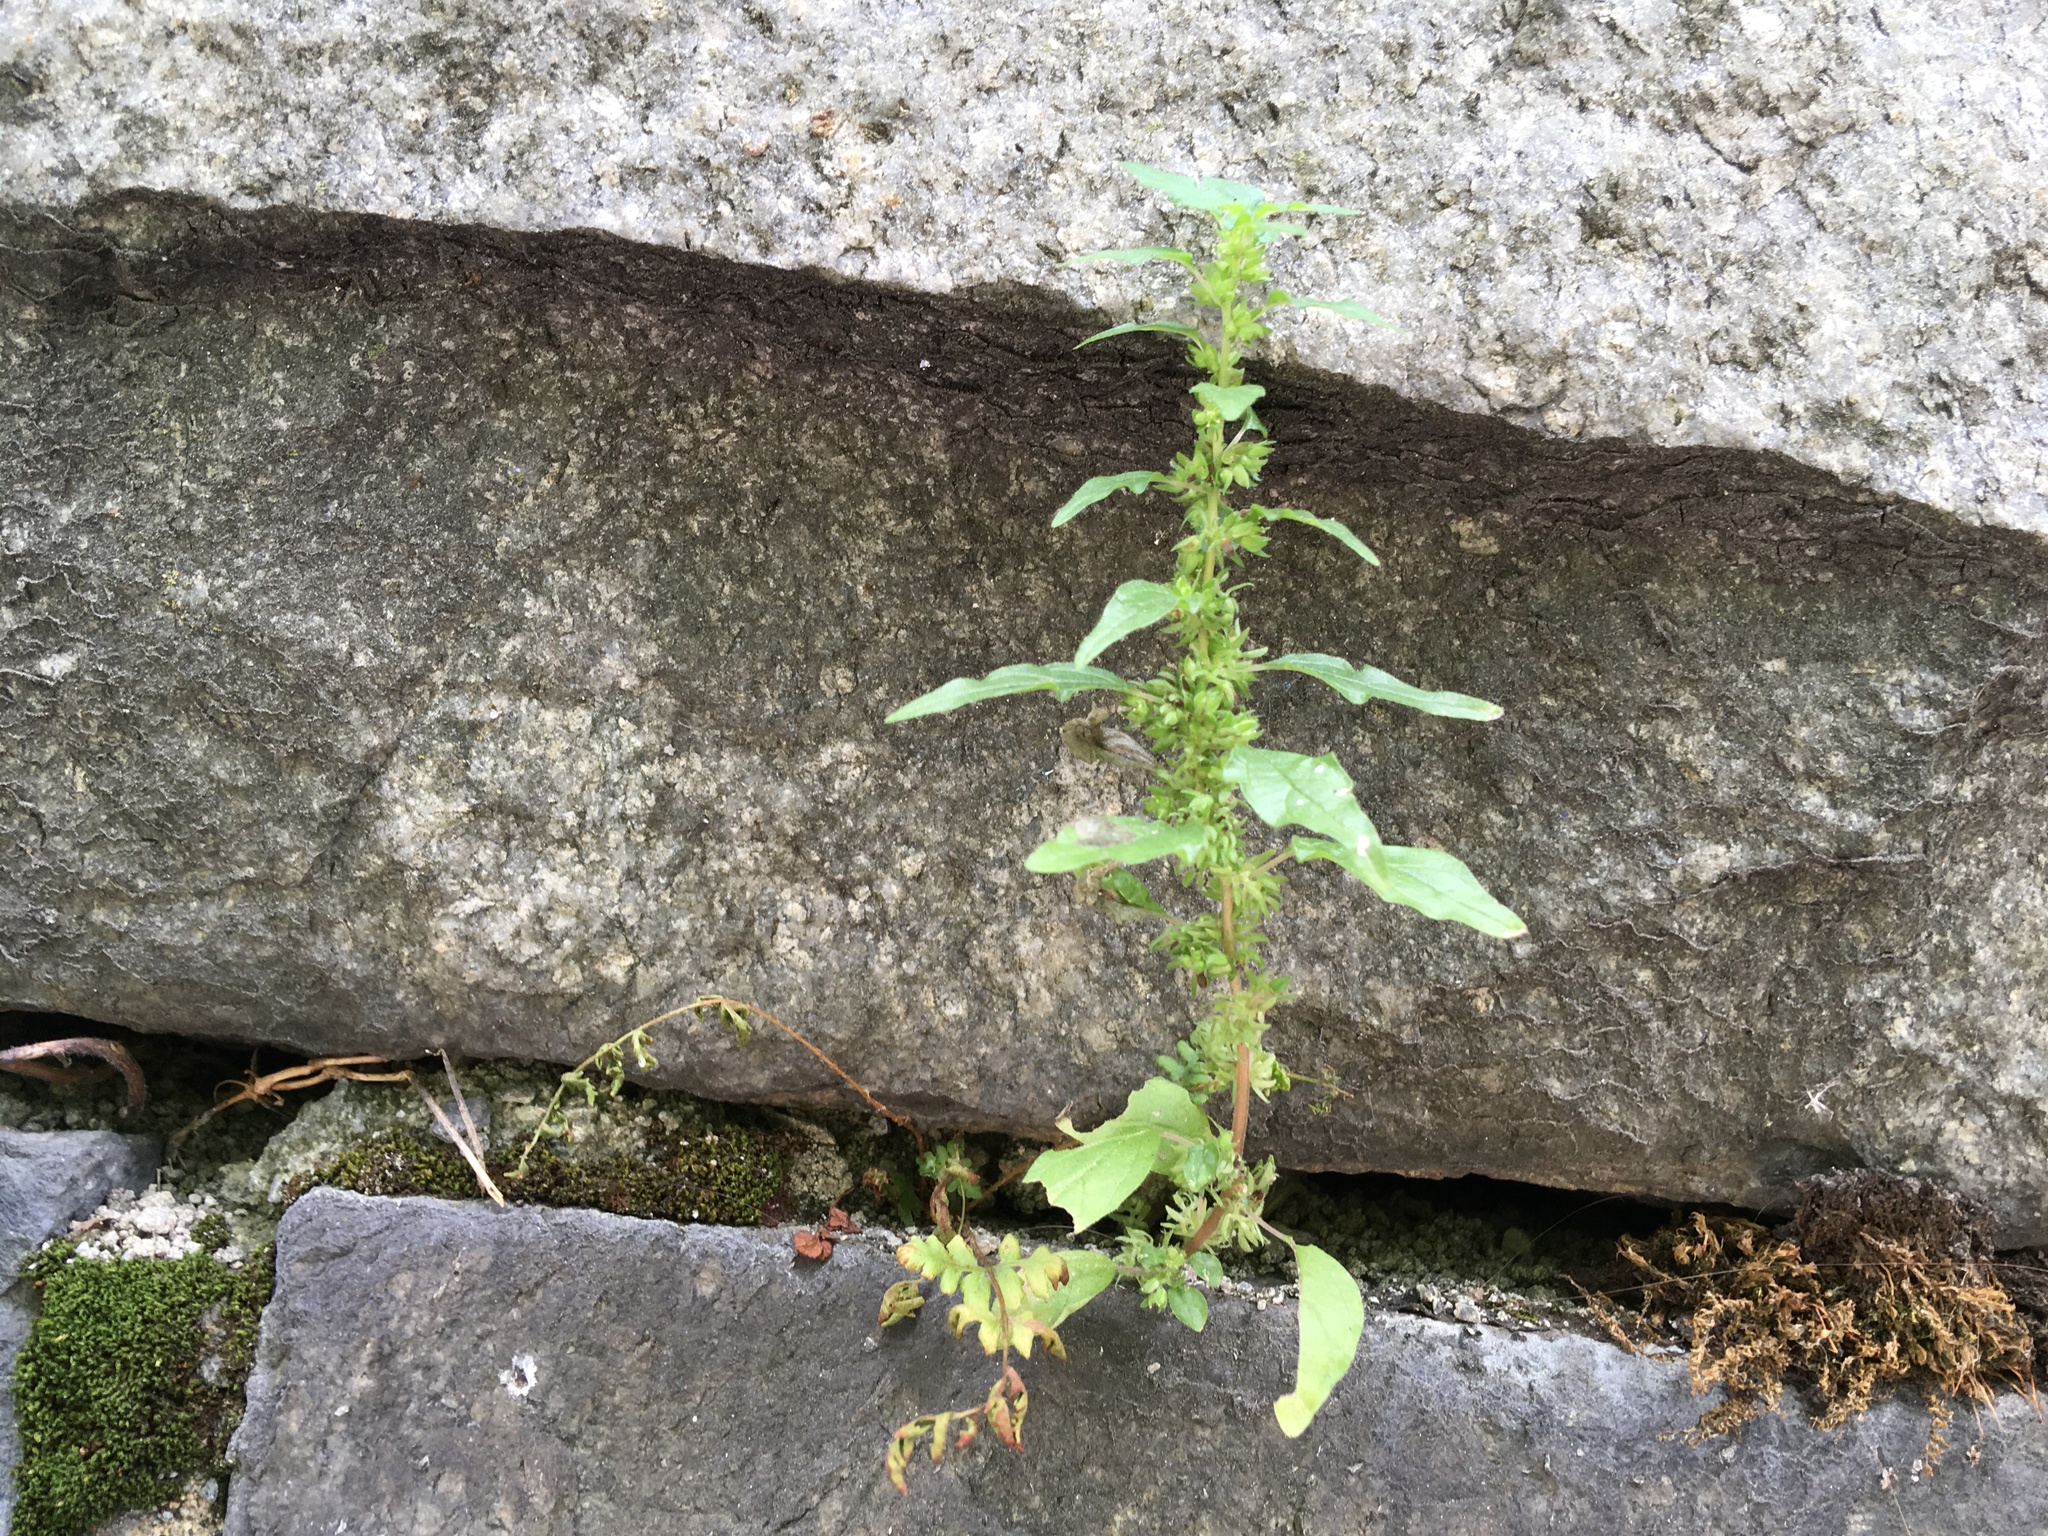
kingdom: Plantae
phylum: Tracheophyta
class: Magnoliopsida
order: Rosales
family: Urticaceae
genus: Parietaria
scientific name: Parietaria pensylvanica
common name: Pennsylvania pellitory
